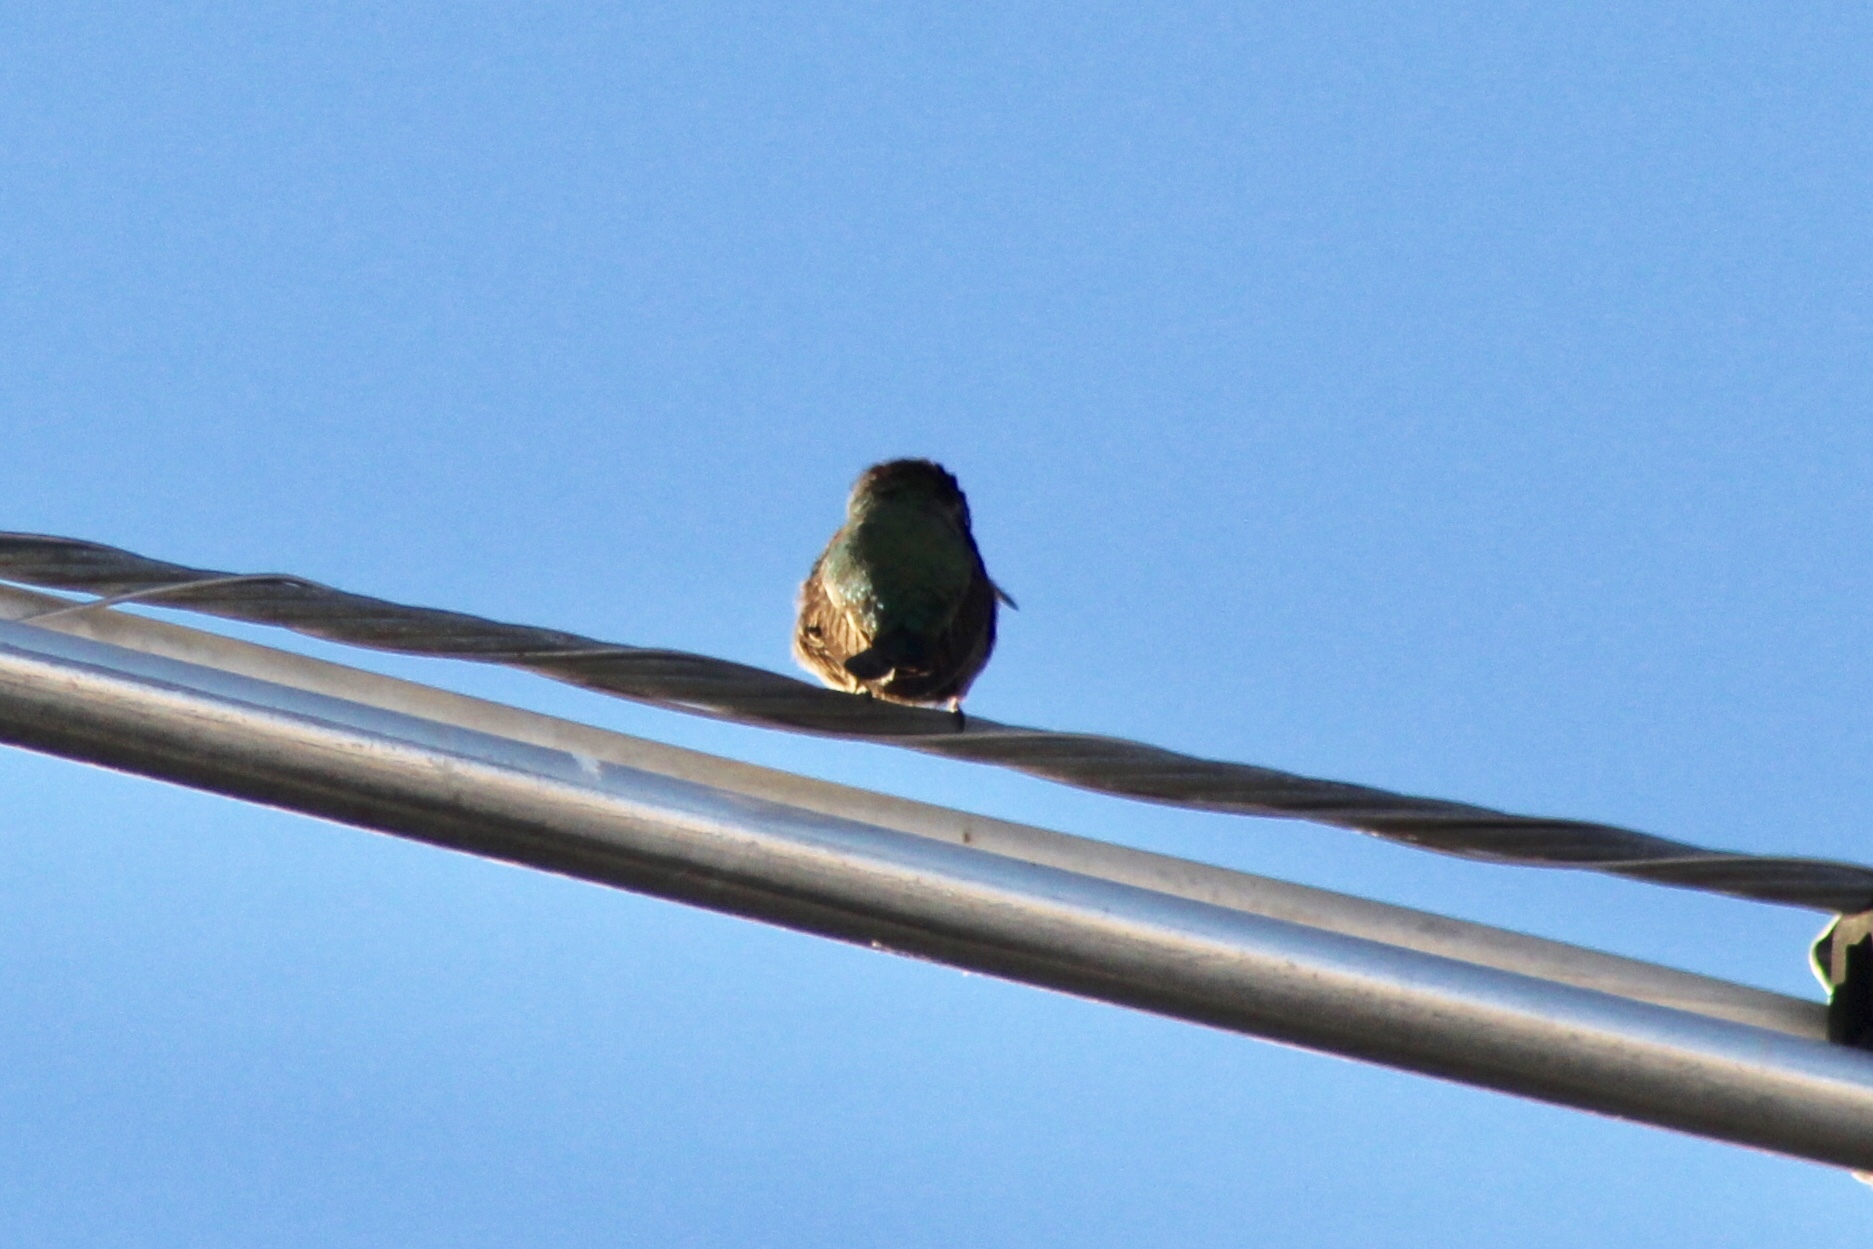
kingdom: Animalia
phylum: Chordata
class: Aves
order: Apodiformes
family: Trochilidae
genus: Calypte
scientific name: Calypte anna
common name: Anna's hummingbird
